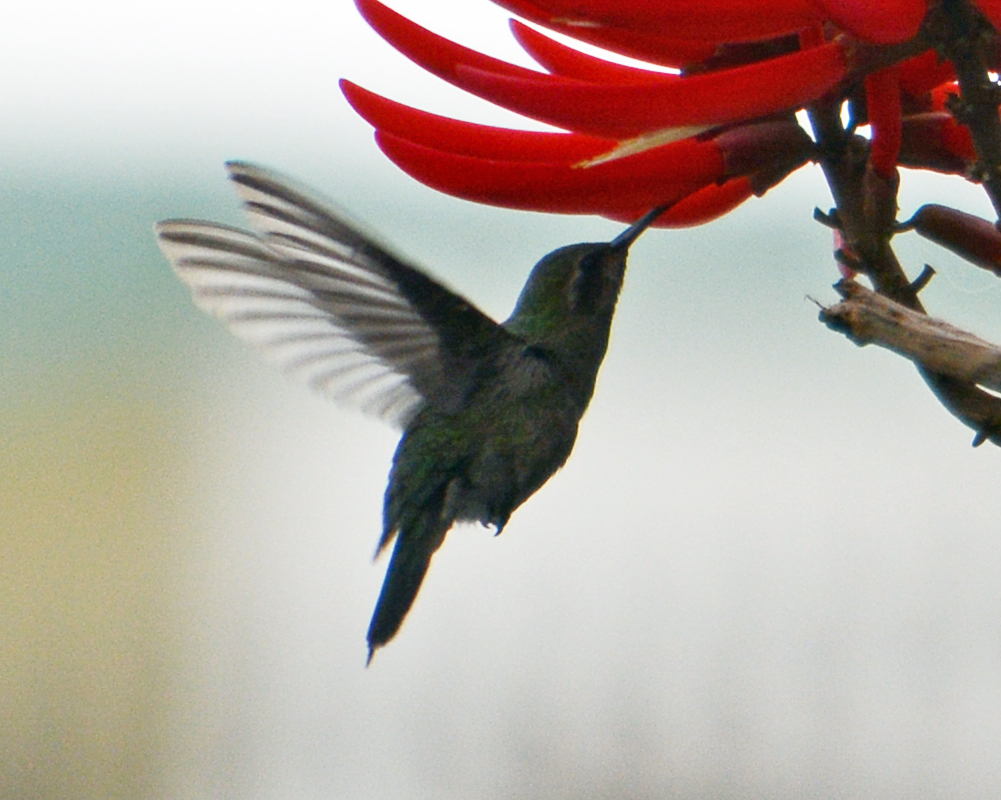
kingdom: Animalia
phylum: Chordata
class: Aves
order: Apodiformes
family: Trochilidae
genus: Cynanthus
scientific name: Cynanthus latirostris
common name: Broad-billed hummingbird
